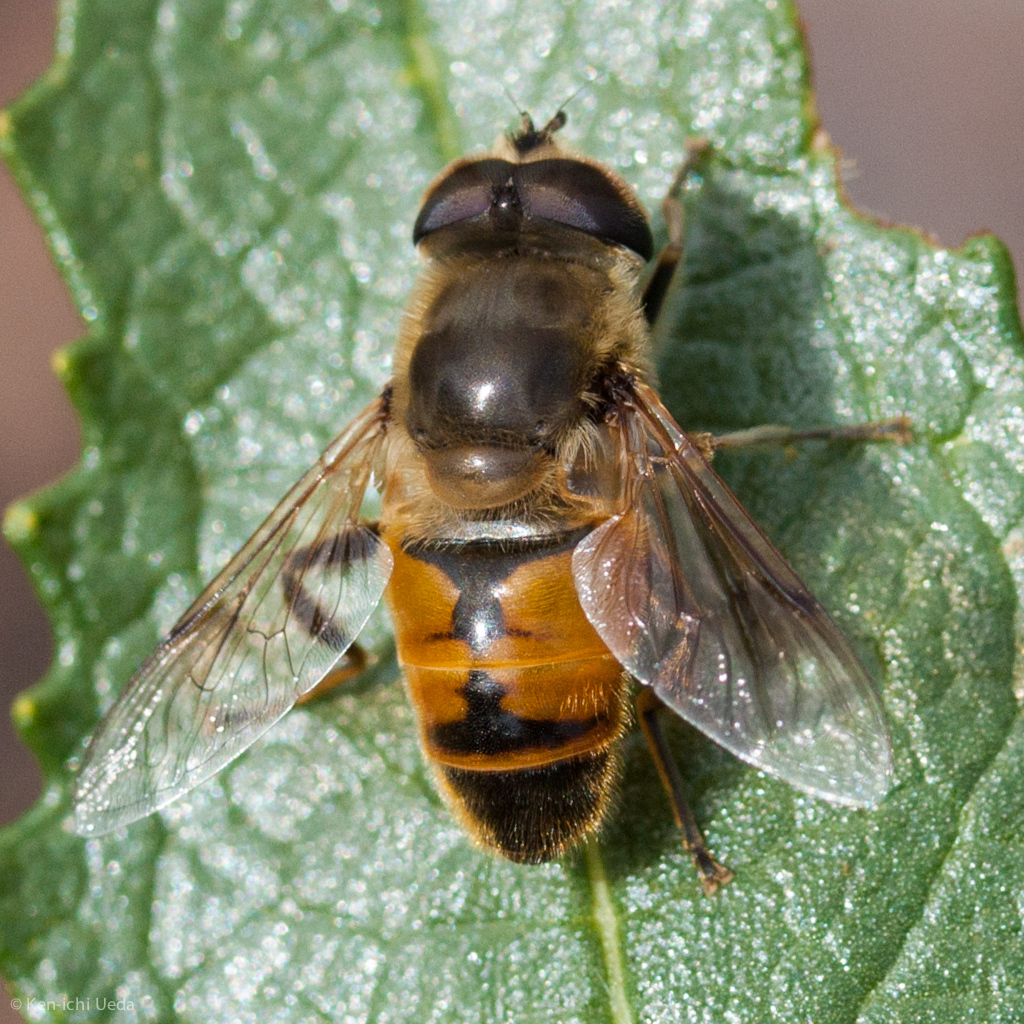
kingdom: Animalia
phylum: Arthropoda
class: Insecta
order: Diptera
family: Syrphidae
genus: Eristalis
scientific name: Eristalis tenax
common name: Drone fly
